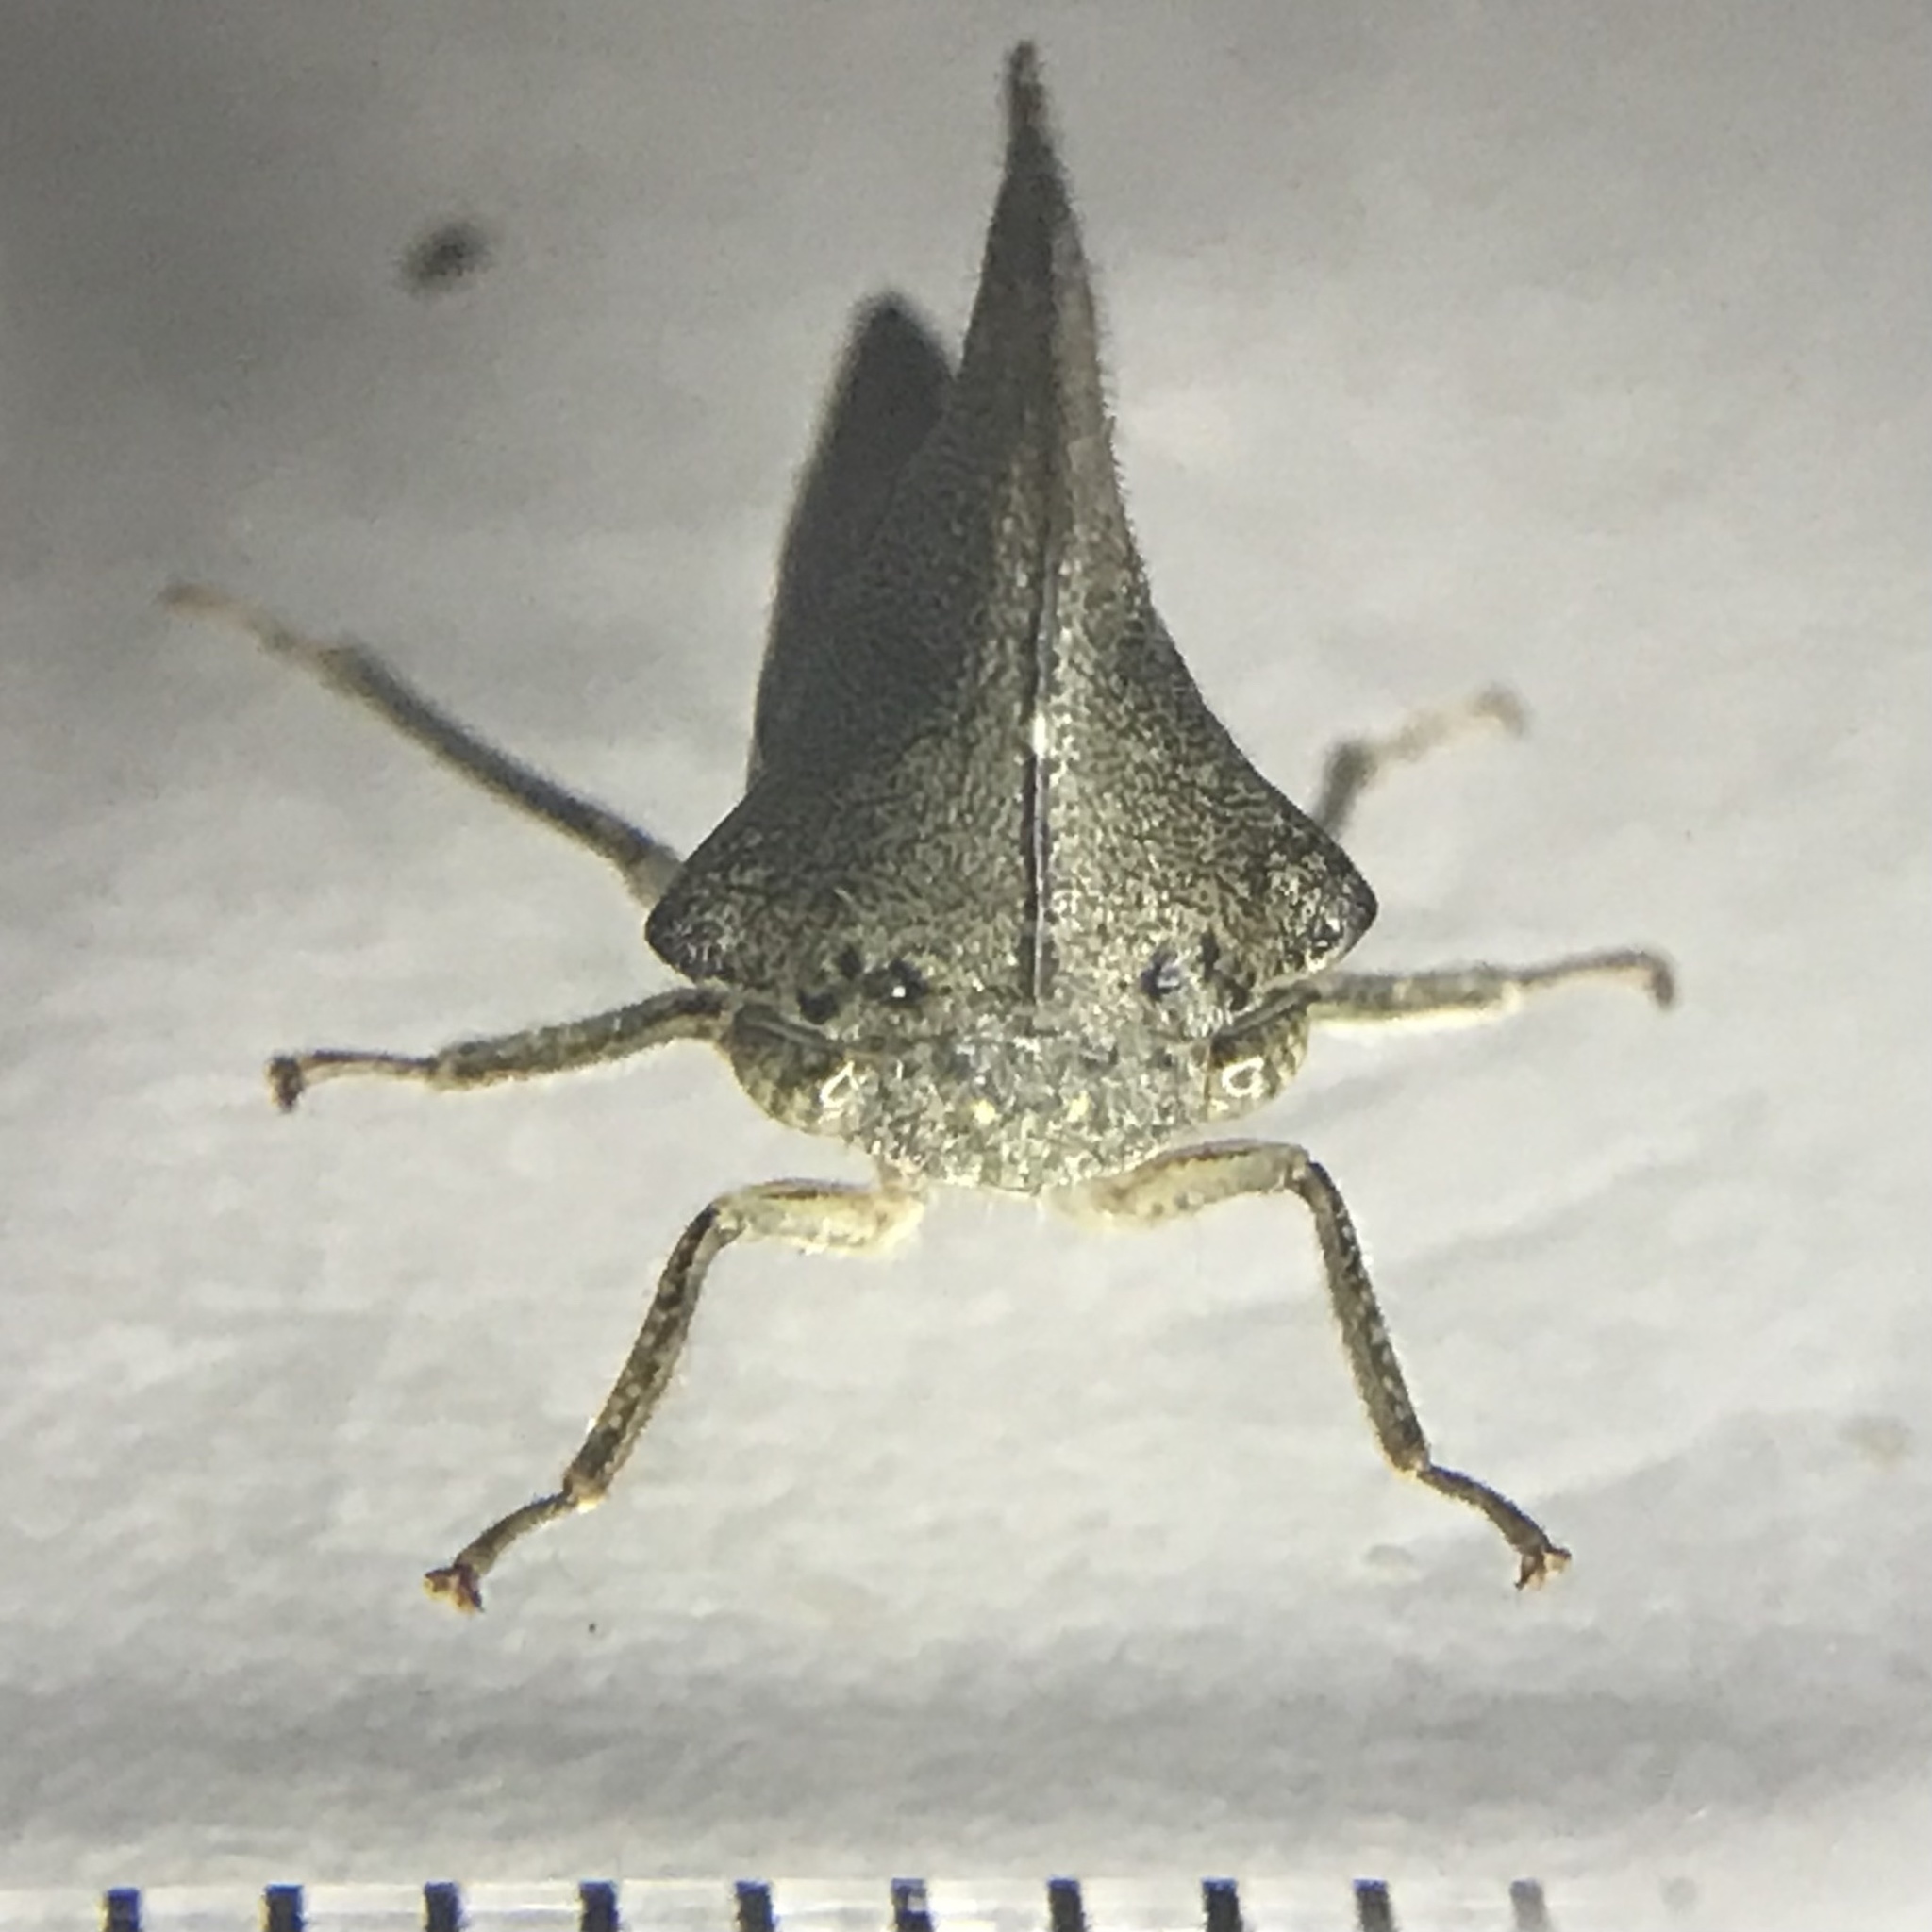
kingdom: Animalia
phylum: Arthropoda
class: Insecta
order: Hemiptera
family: Membracidae
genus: Glossonotus
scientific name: Glossonotus acuminata
